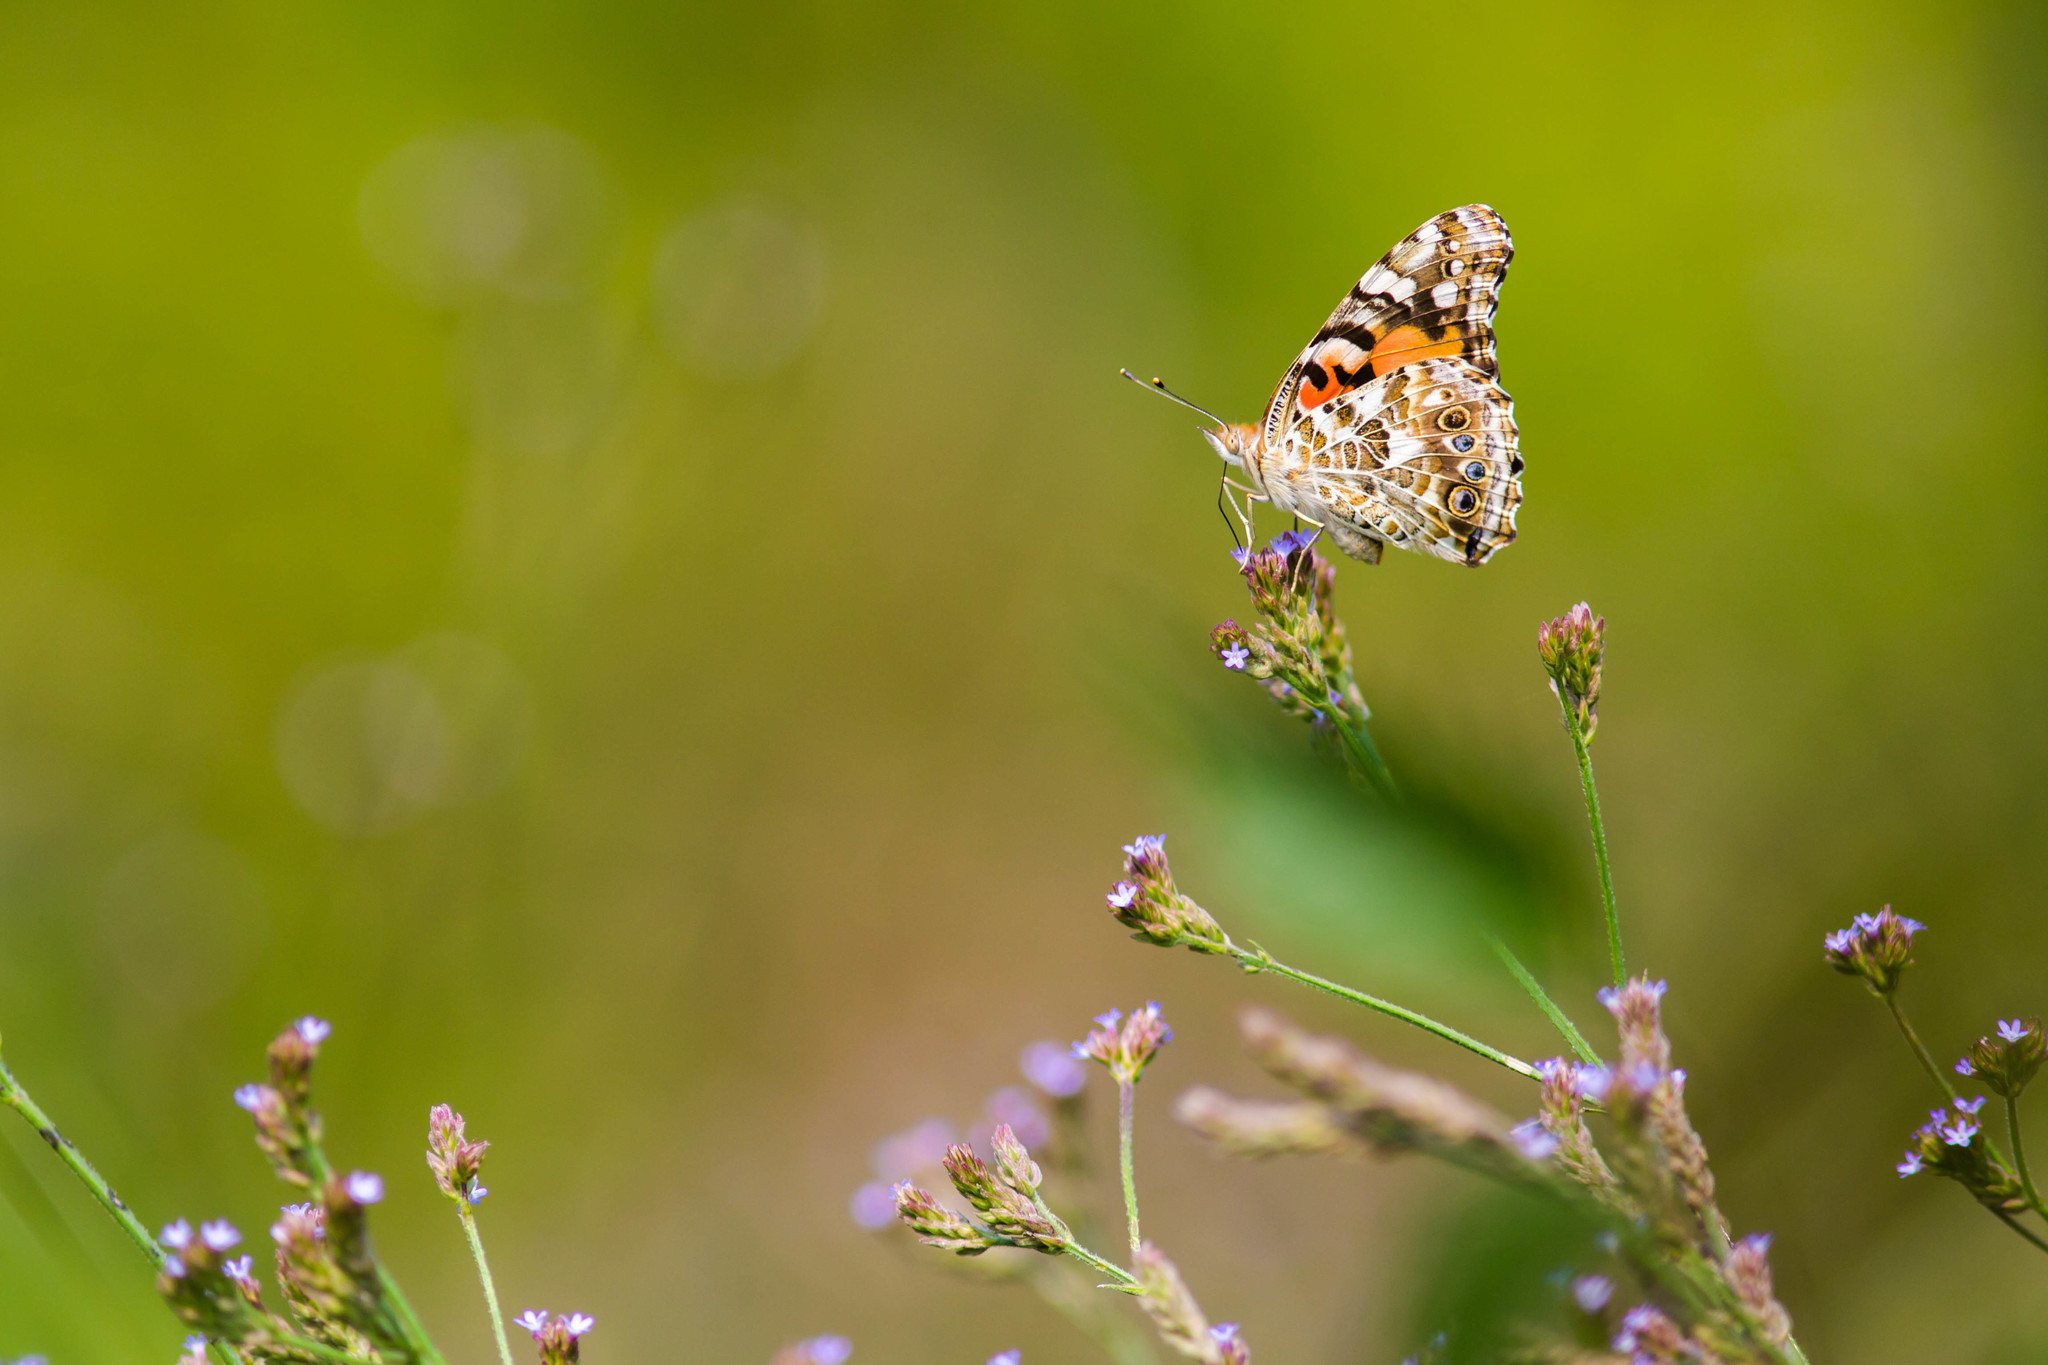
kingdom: Animalia
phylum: Arthropoda
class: Insecta
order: Lepidoptera
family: Nymphalidae
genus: Vanessa
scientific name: Vanessa cardui
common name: Painted lady
